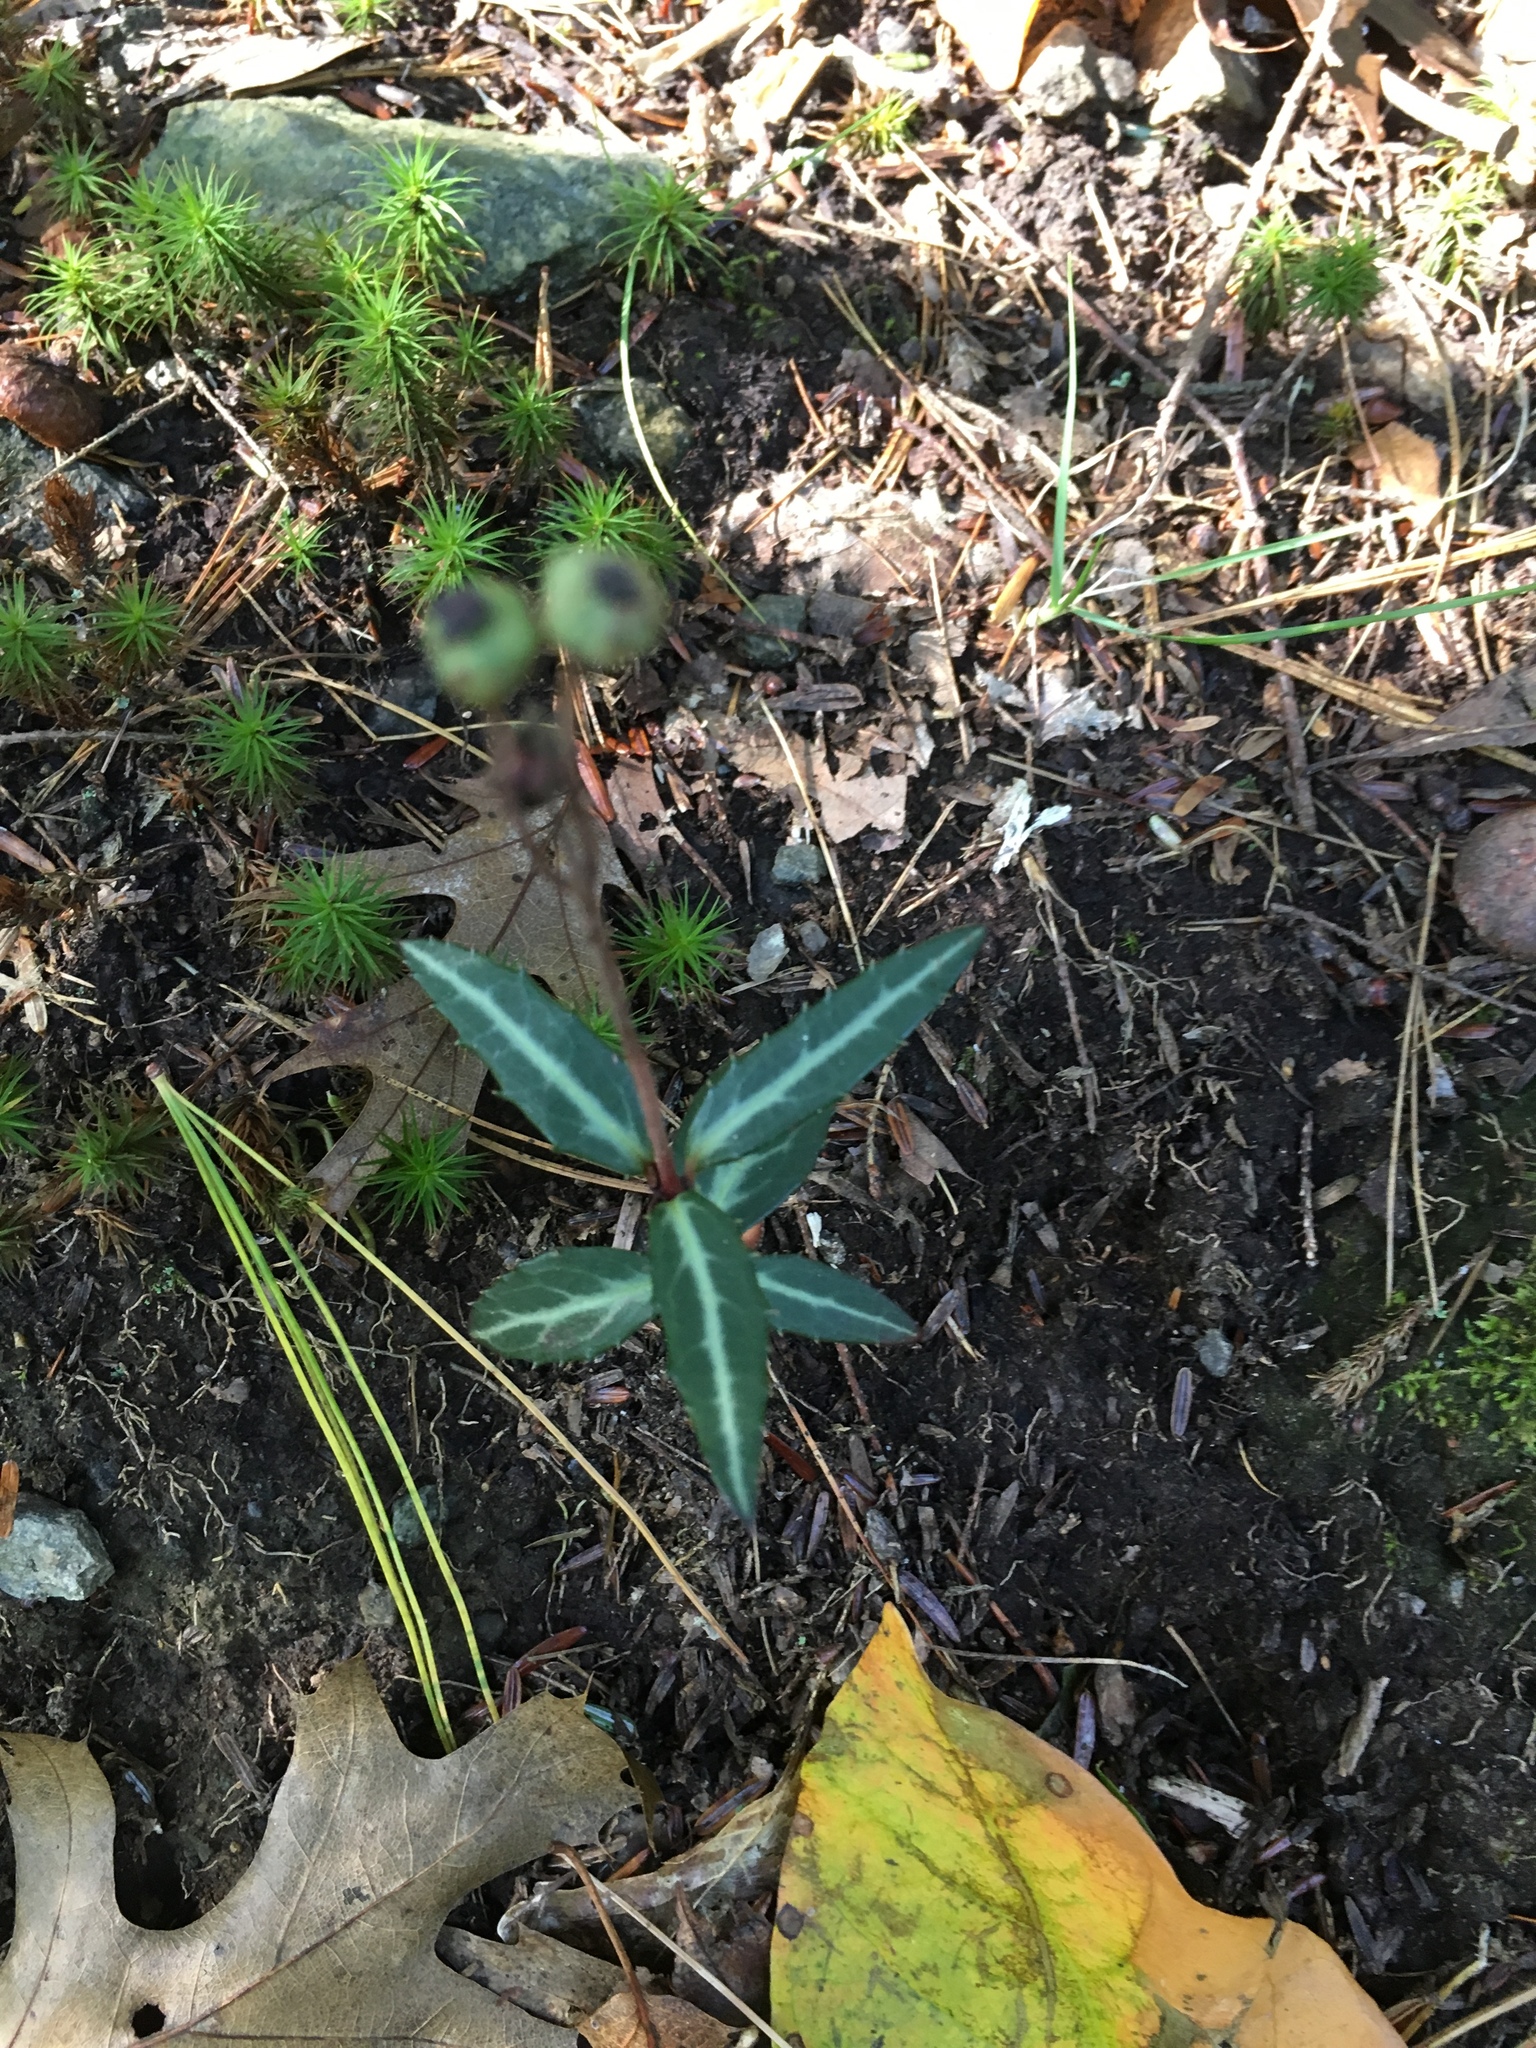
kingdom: Plantae
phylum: Tracheophyta
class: Magnoliopsida
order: Ericales
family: Ericaceae
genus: Chimaphila
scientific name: Chimaphila maculata
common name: Spotted pipsissewa
